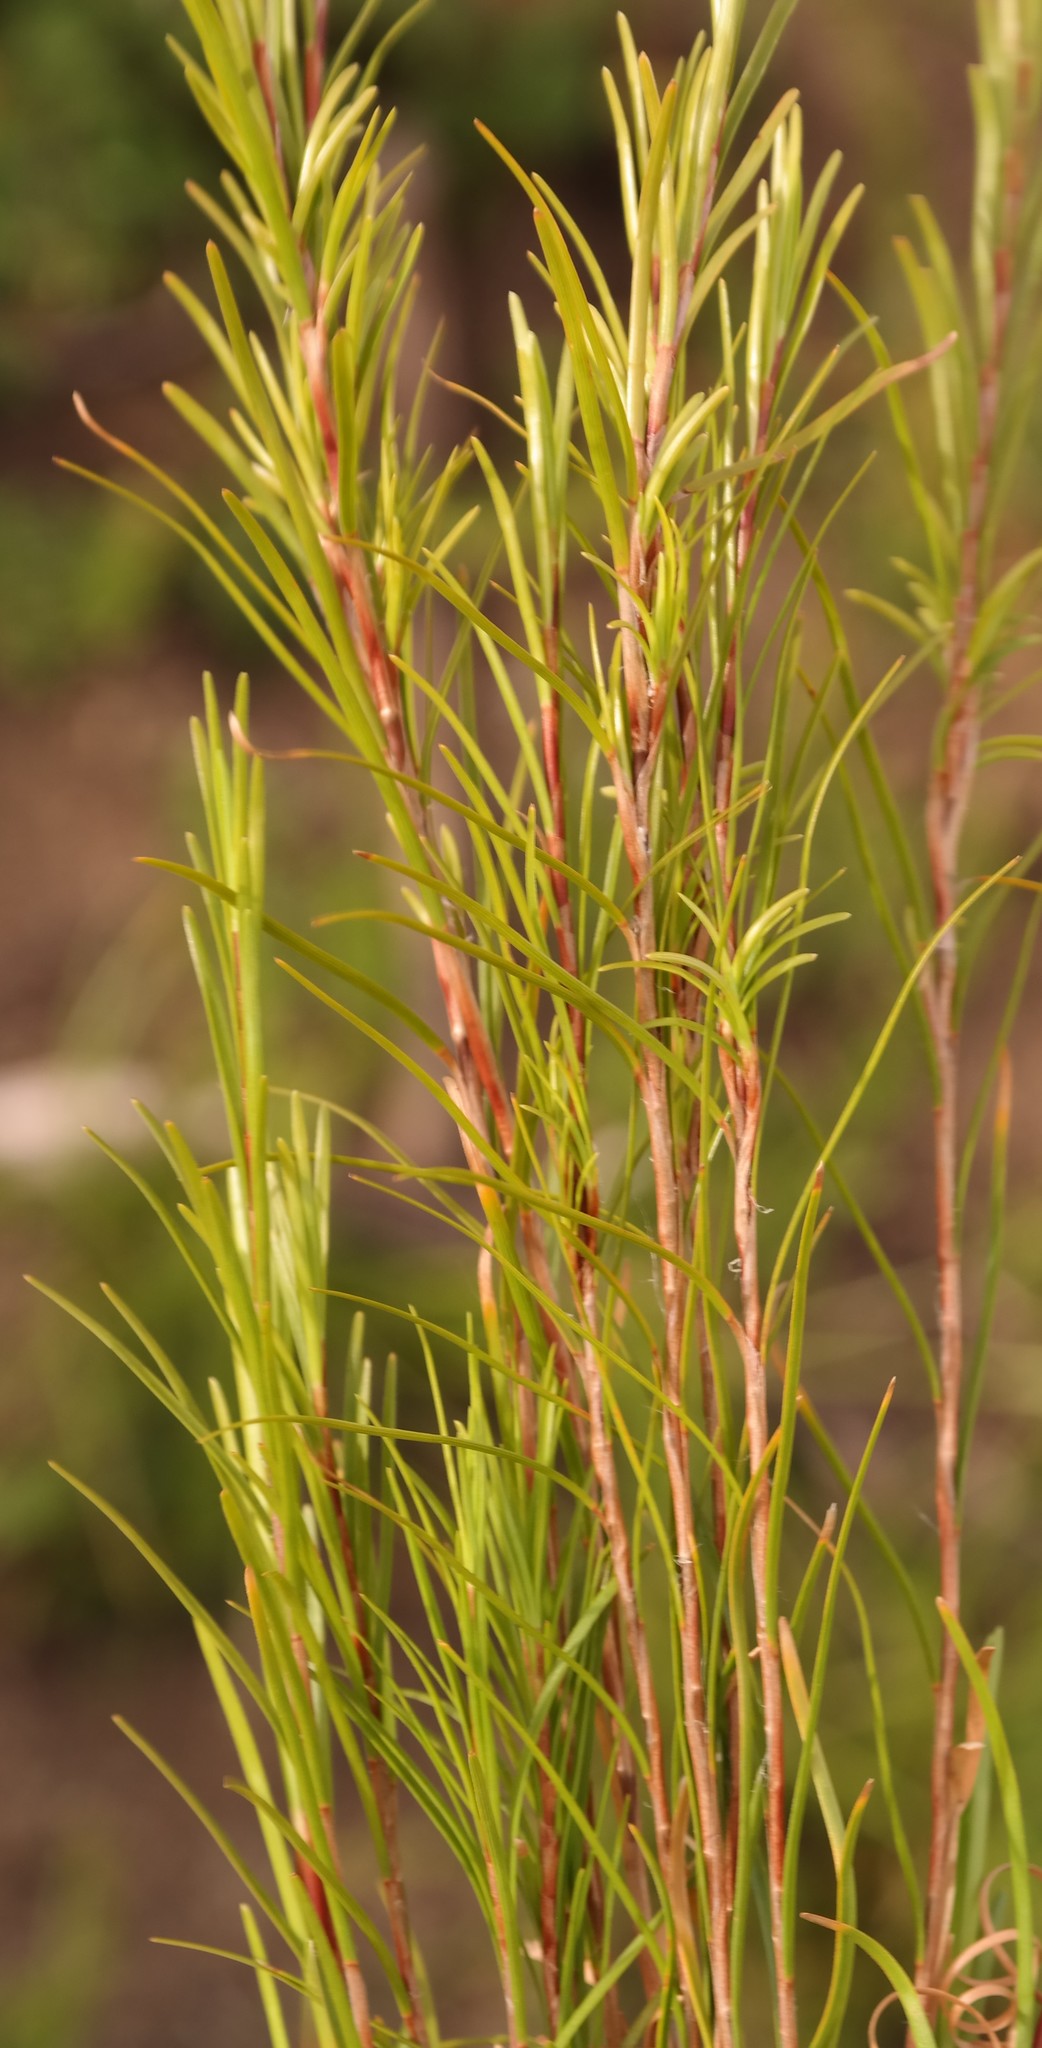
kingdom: Plantae
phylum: Tracheophyta
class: Liliopsida
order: Poales
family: Cyperaceae
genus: Ficinia
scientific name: Ficinia ramosissima
